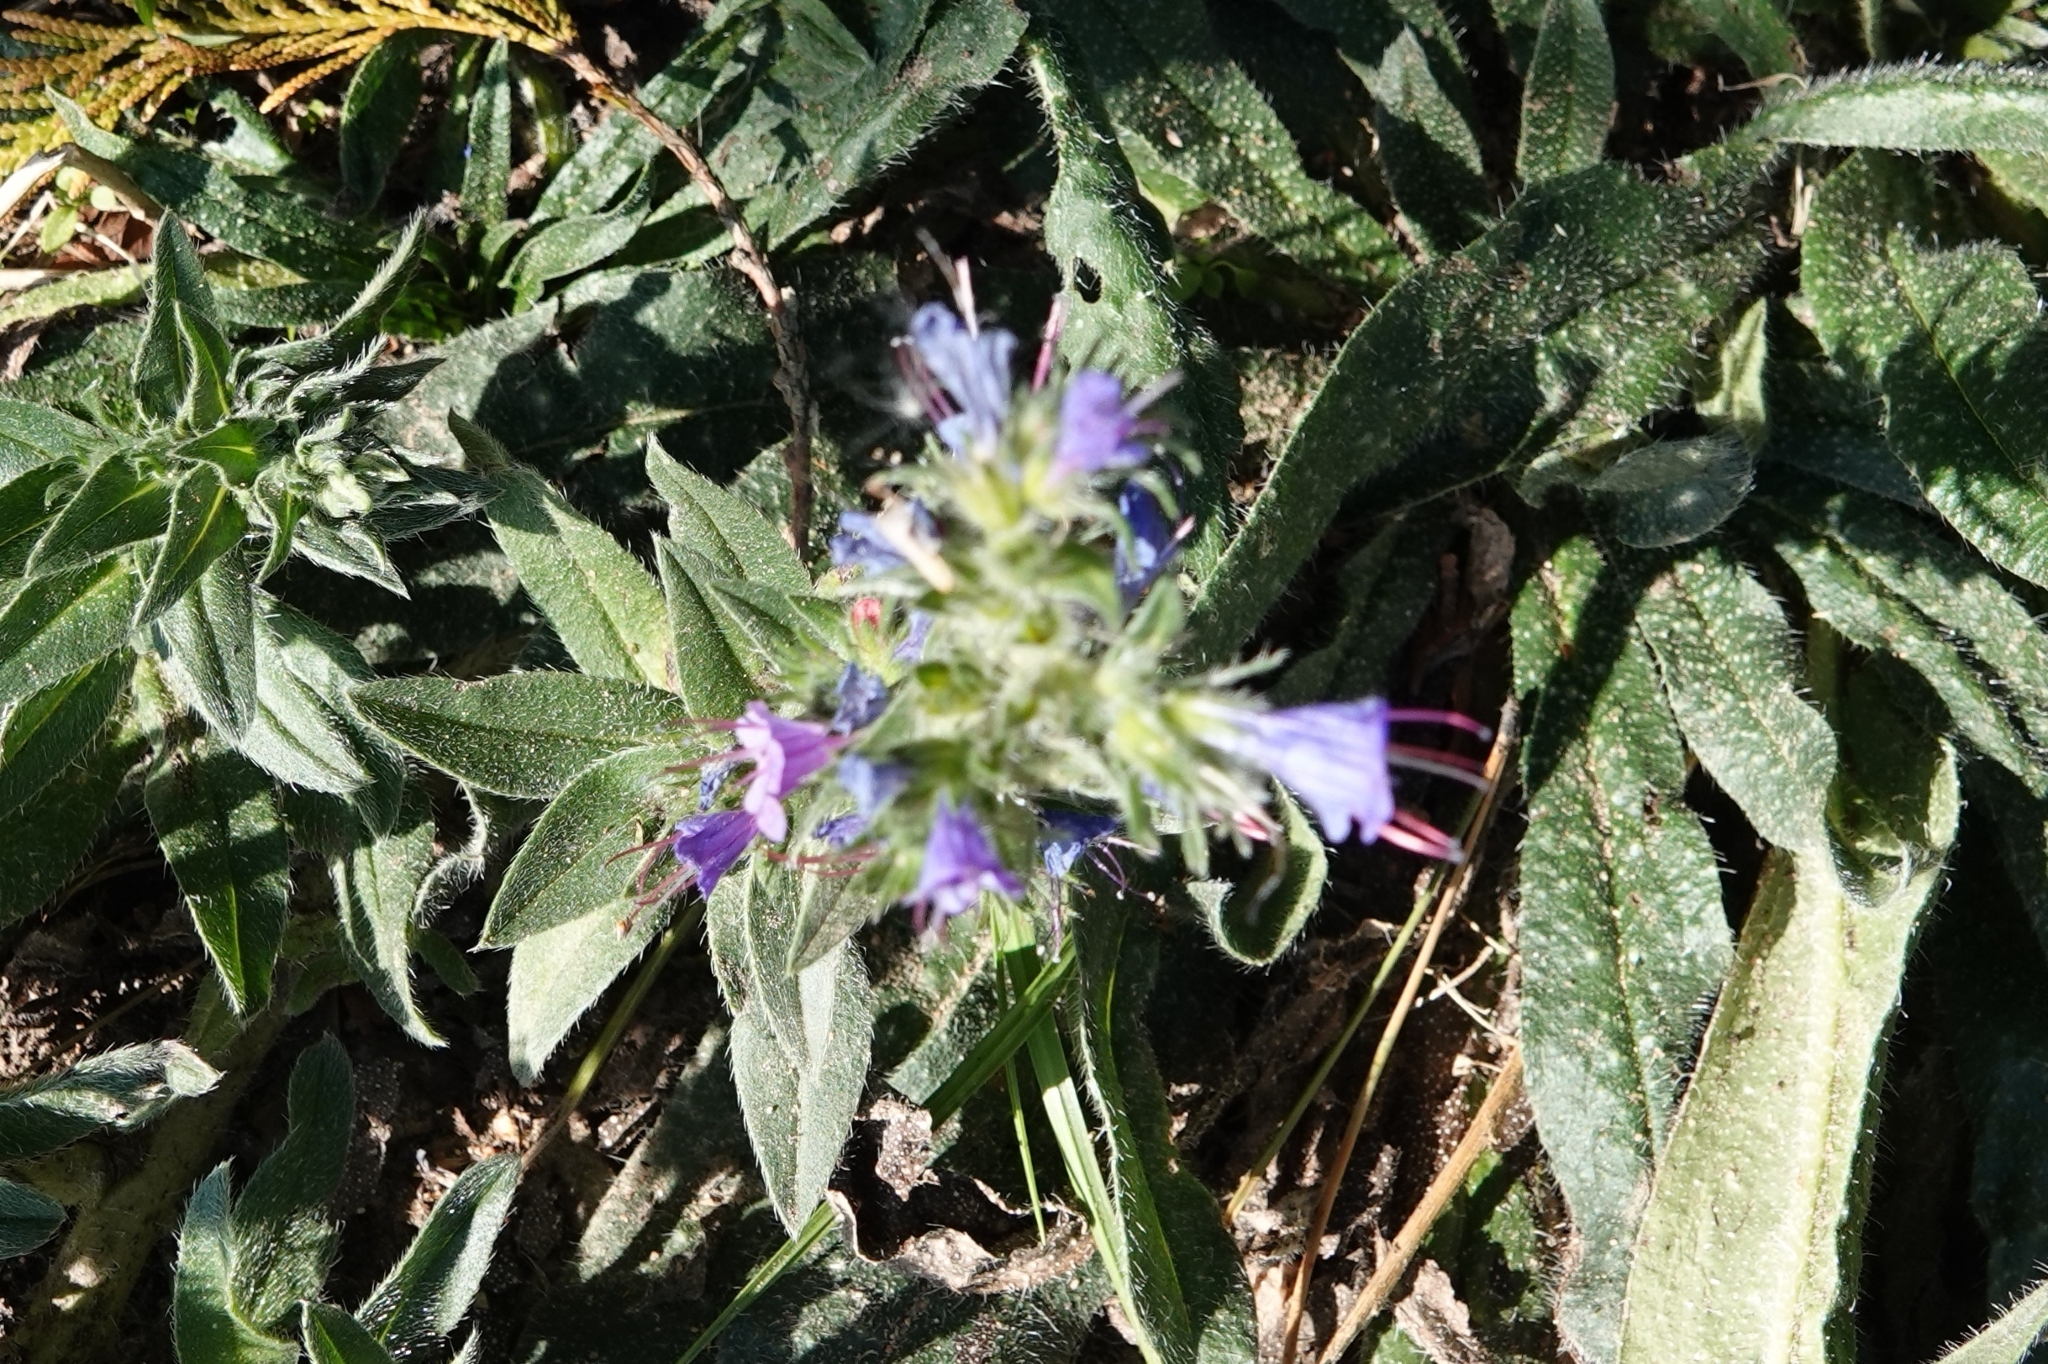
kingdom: Plantae
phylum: Tracheophyta
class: Magnoliopsida
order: Boraginales
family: Boraginaceae
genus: Echium
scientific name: Echium vulgare
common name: Common viper's bugloss
